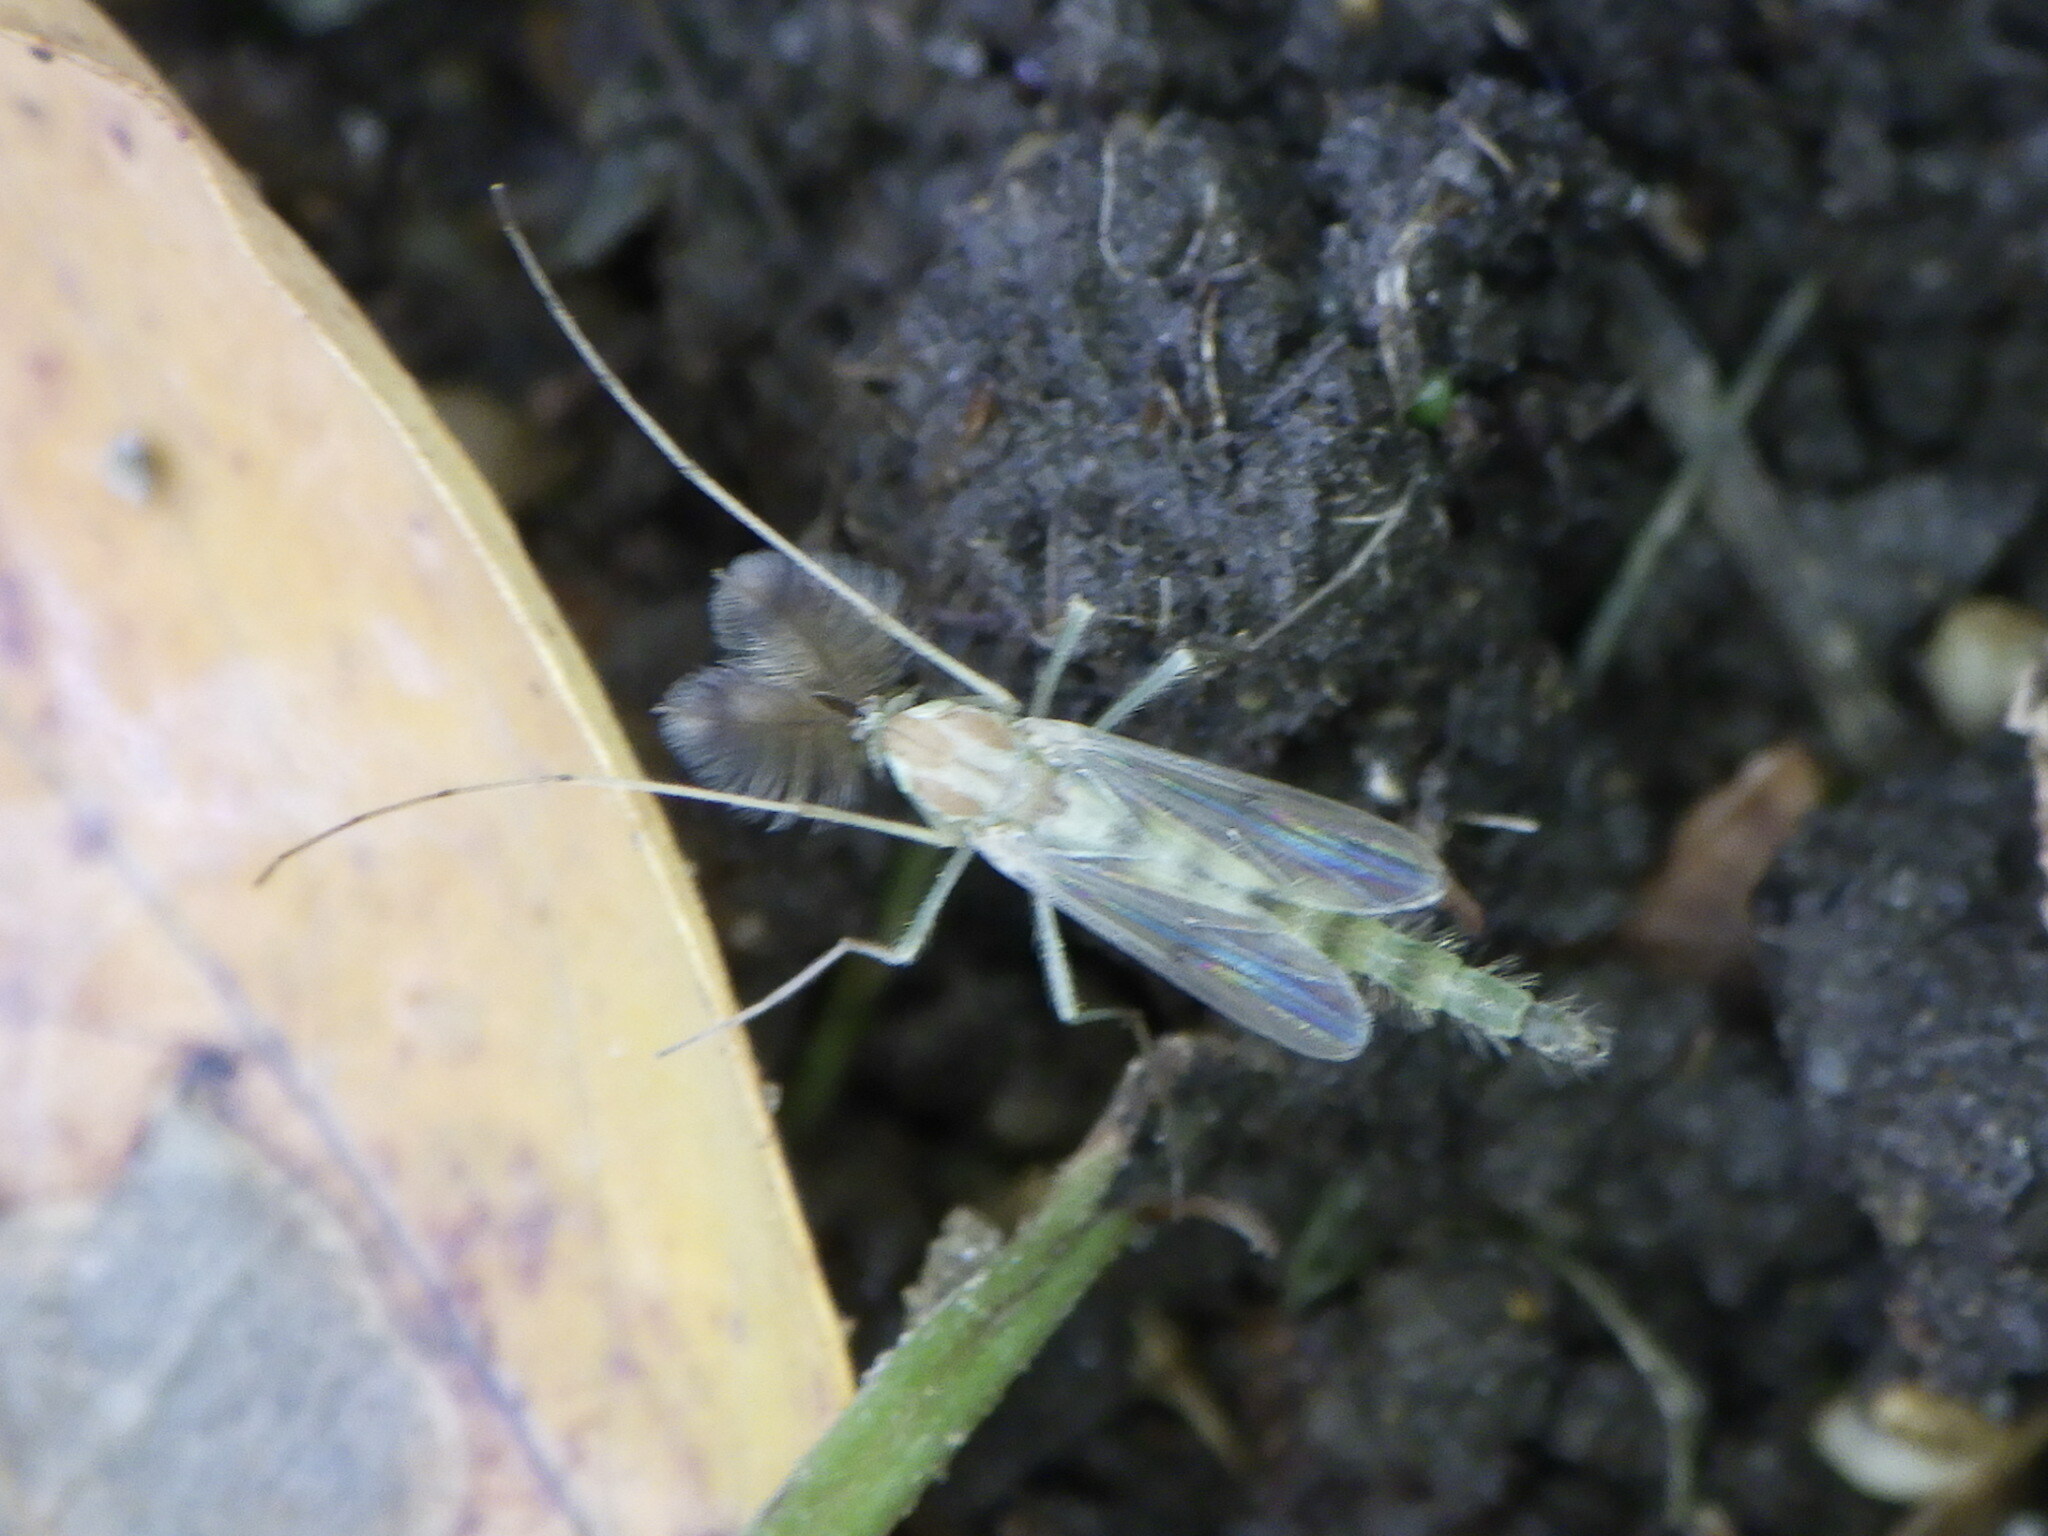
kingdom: Animalia
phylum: Arthropoda
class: Insecta
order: Diptera
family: Chironomidae
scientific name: Chironomidae
